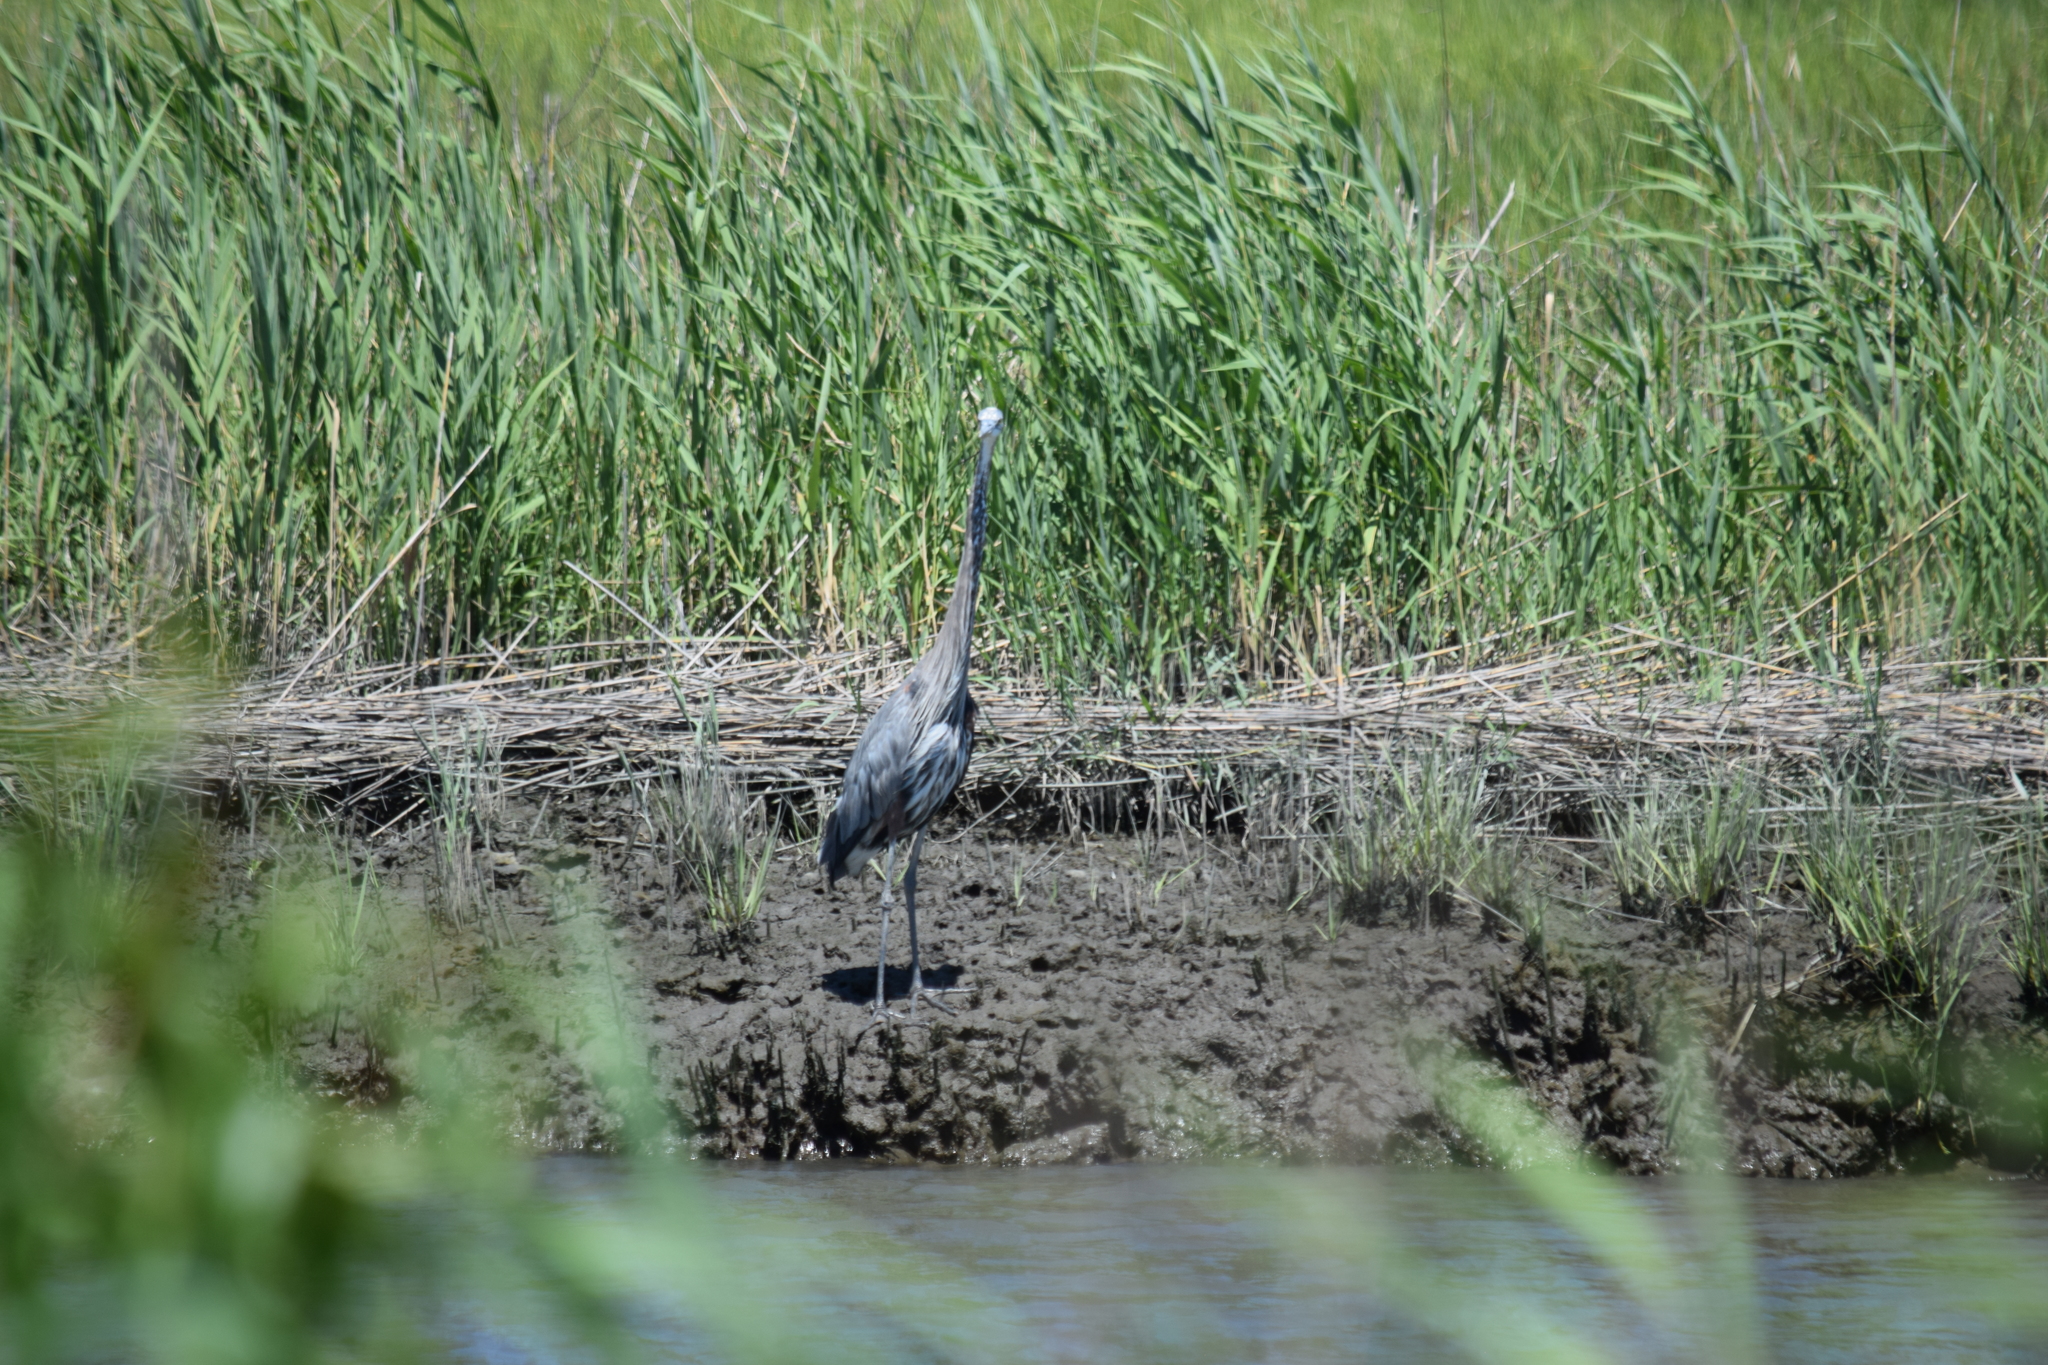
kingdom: Animalia
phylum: Chordata
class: Aves
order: Pelecaniformes
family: Ardeidae
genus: Ardea
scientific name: Ardea herodias
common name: Great blue heron
